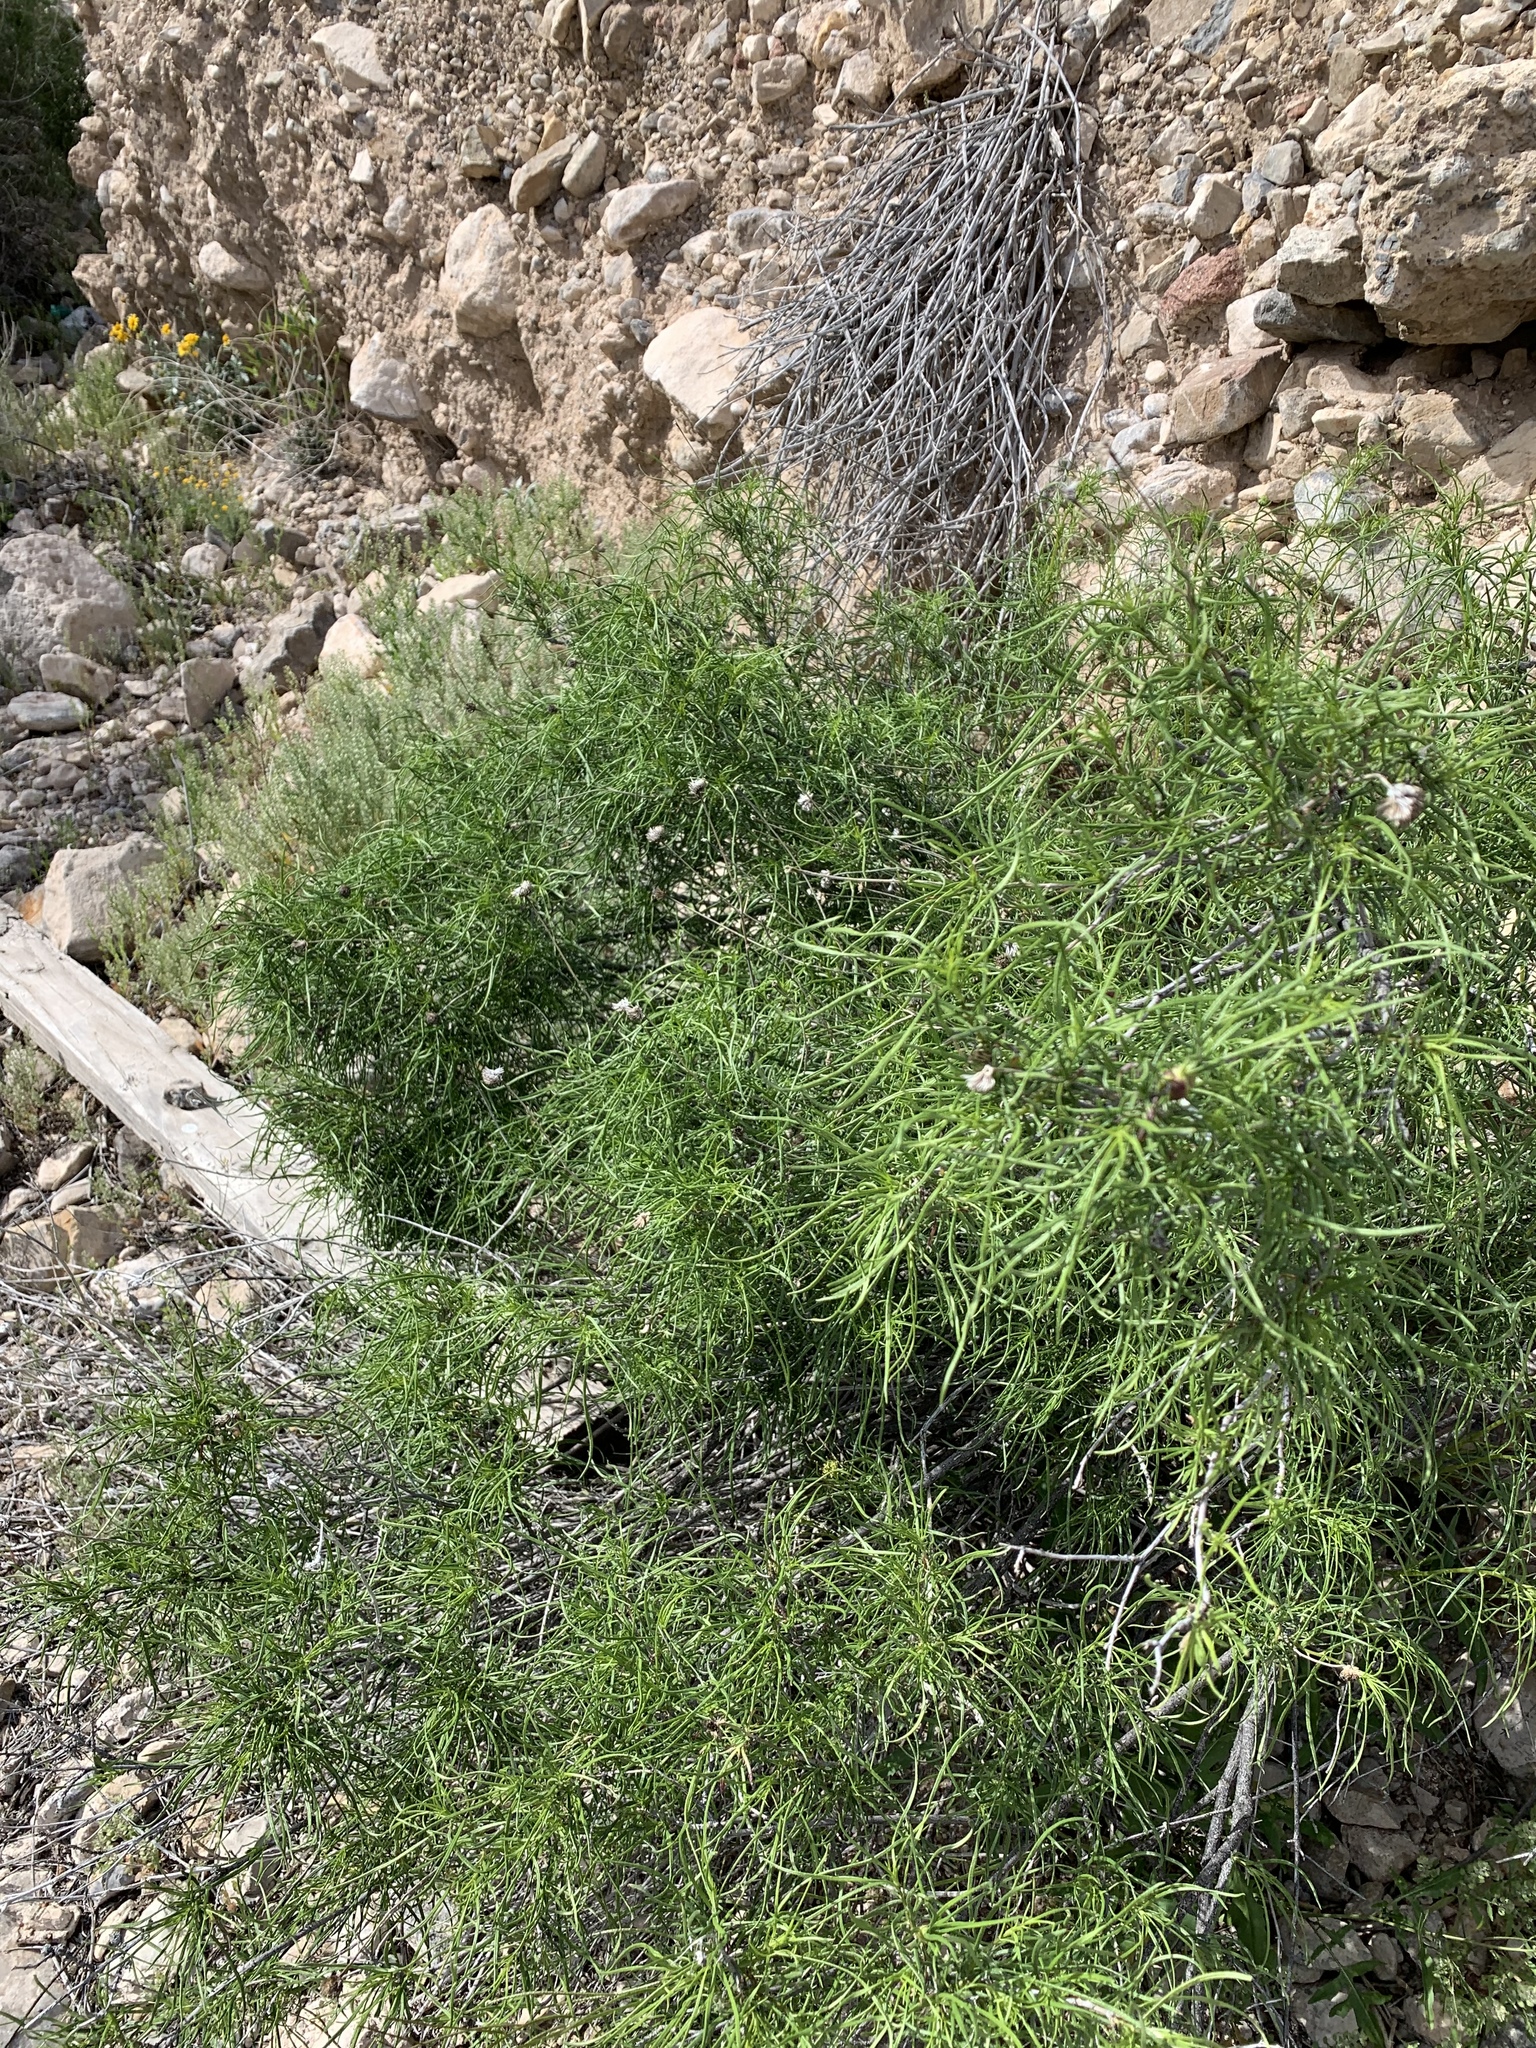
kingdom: Plantae
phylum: Tracheophyta
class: Magnoliopsida
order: Asterales
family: Asteraceae
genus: Sidneya
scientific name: Sidneya tenuifolia
